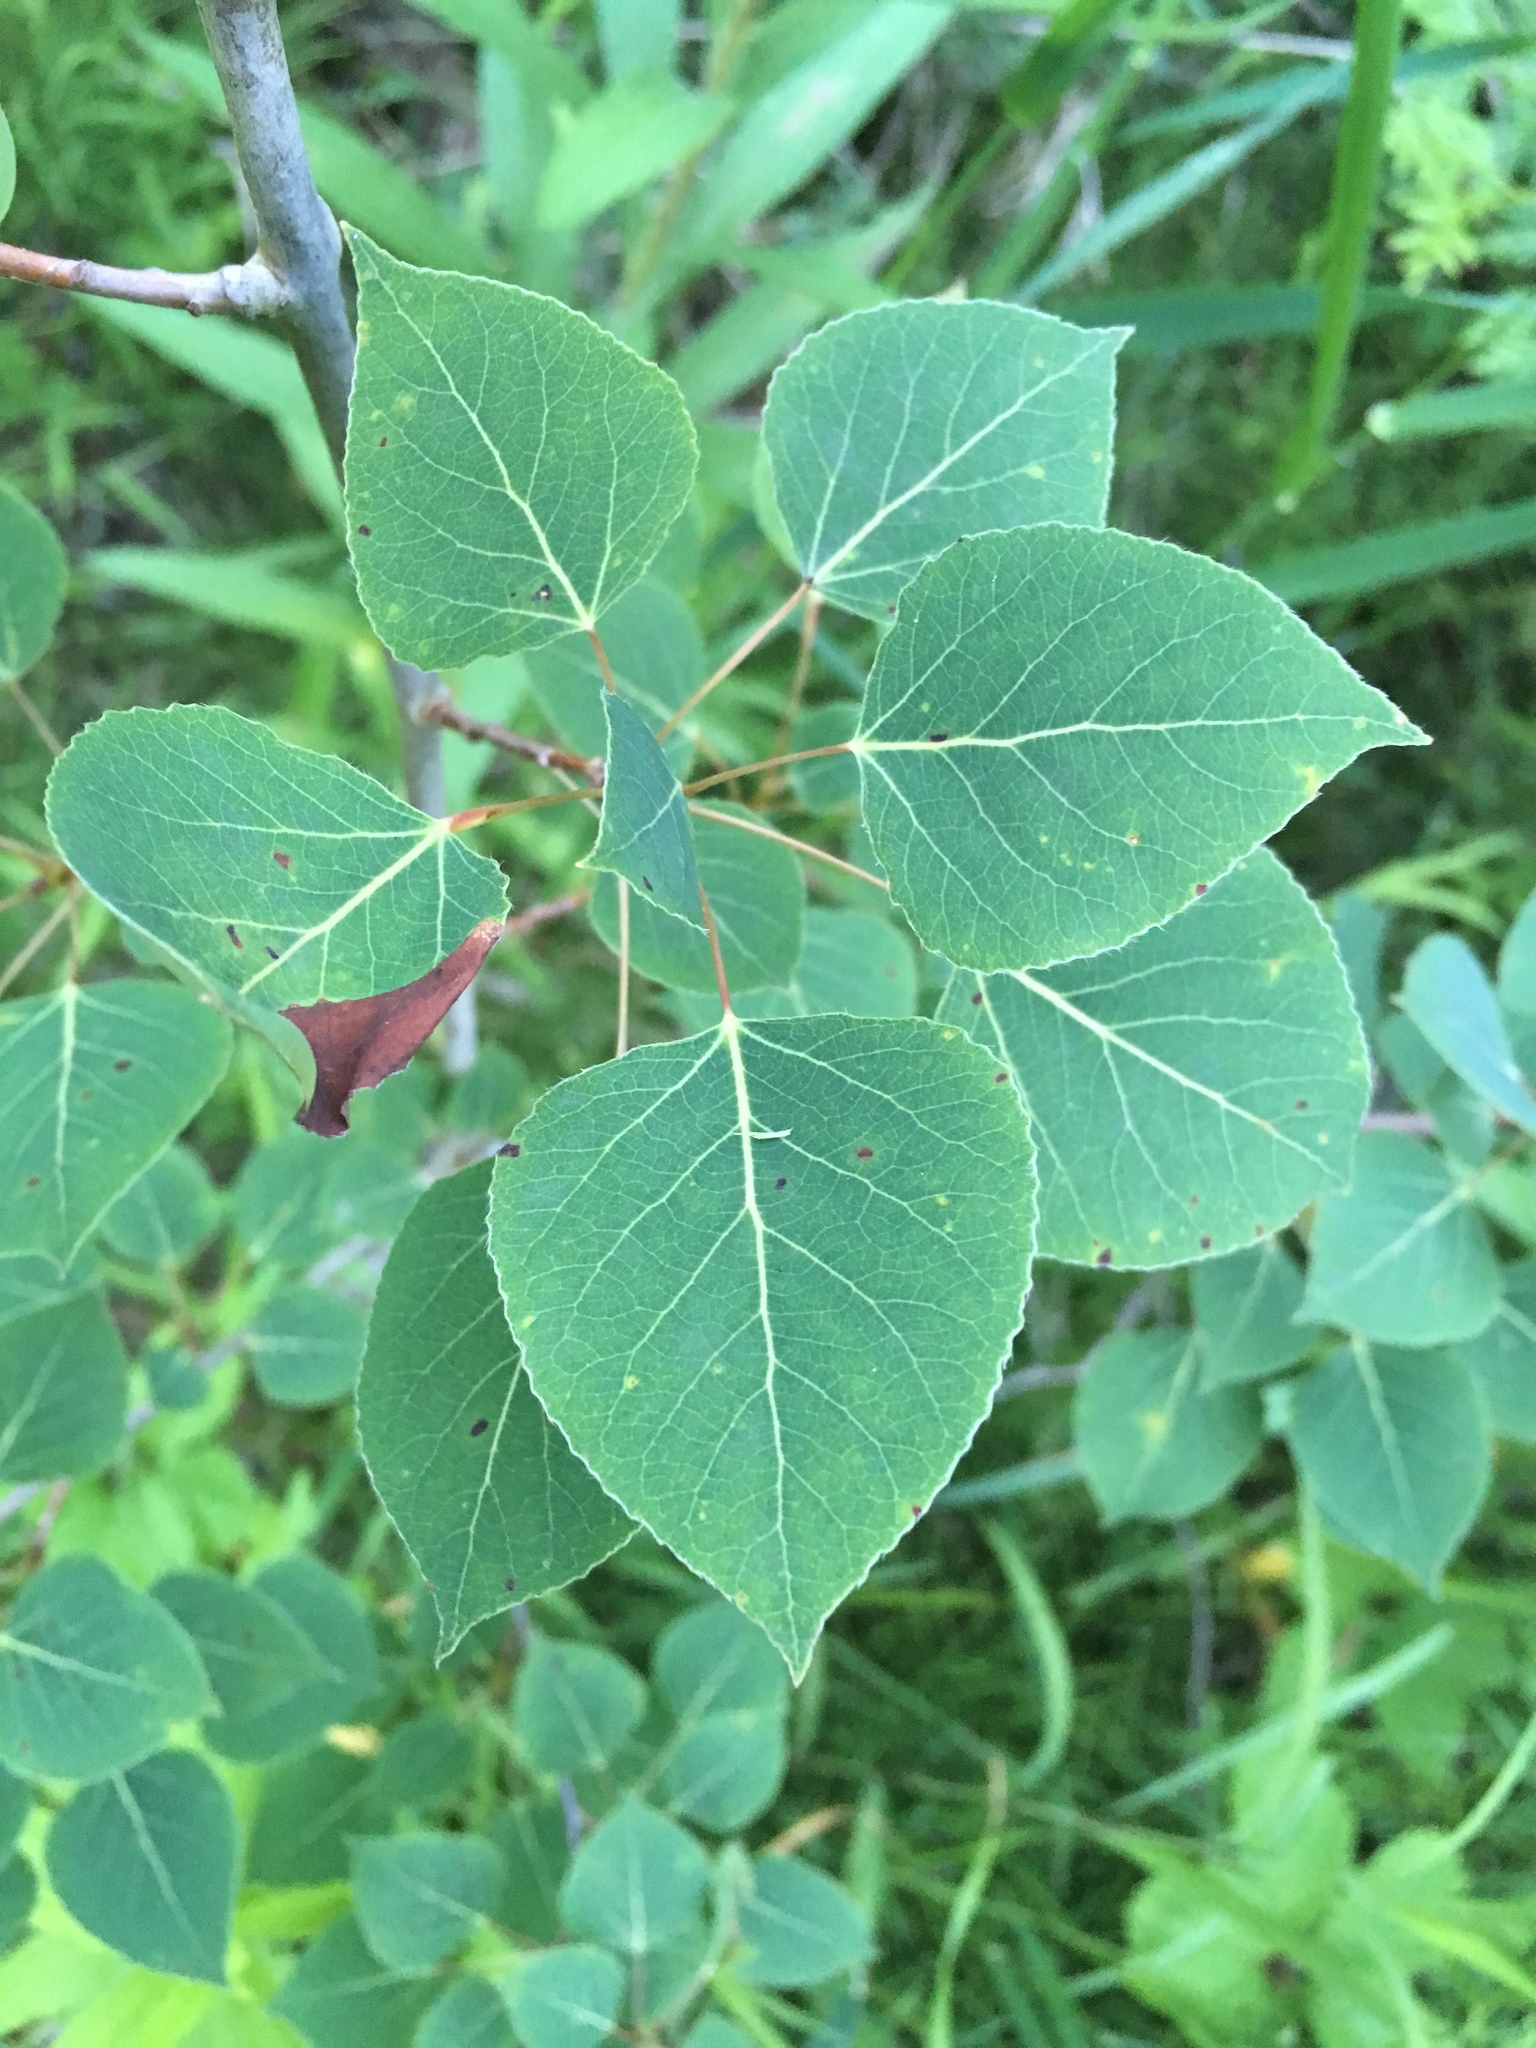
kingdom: Plantae
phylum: Tracheophyta
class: Magnoliopsida
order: Malpighiales
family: Salicaceae
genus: Populus
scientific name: Populus tremuloides
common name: Quaking aspen
